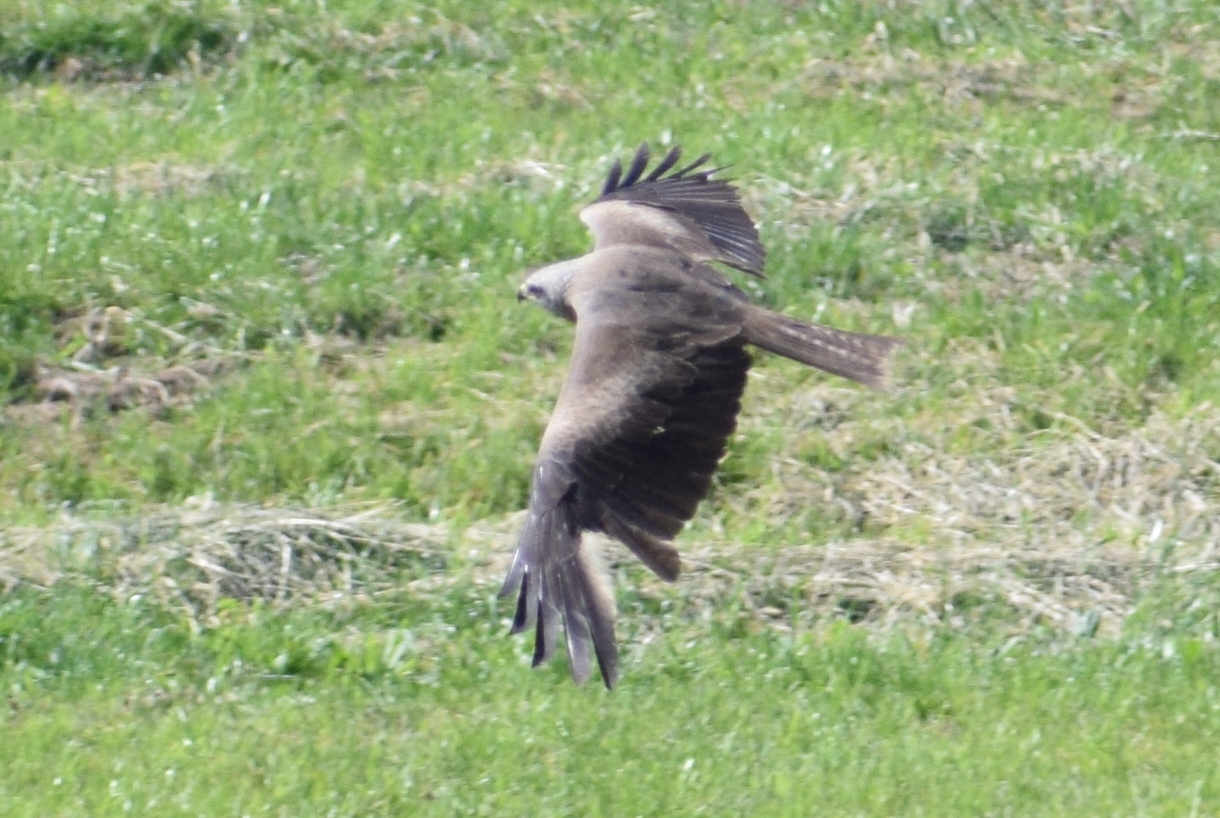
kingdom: Animalia
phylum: Chordata
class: Aves
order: Accipitriformes
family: Accipitridae
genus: Milvus
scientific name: Milvus migrans
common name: Black kite
